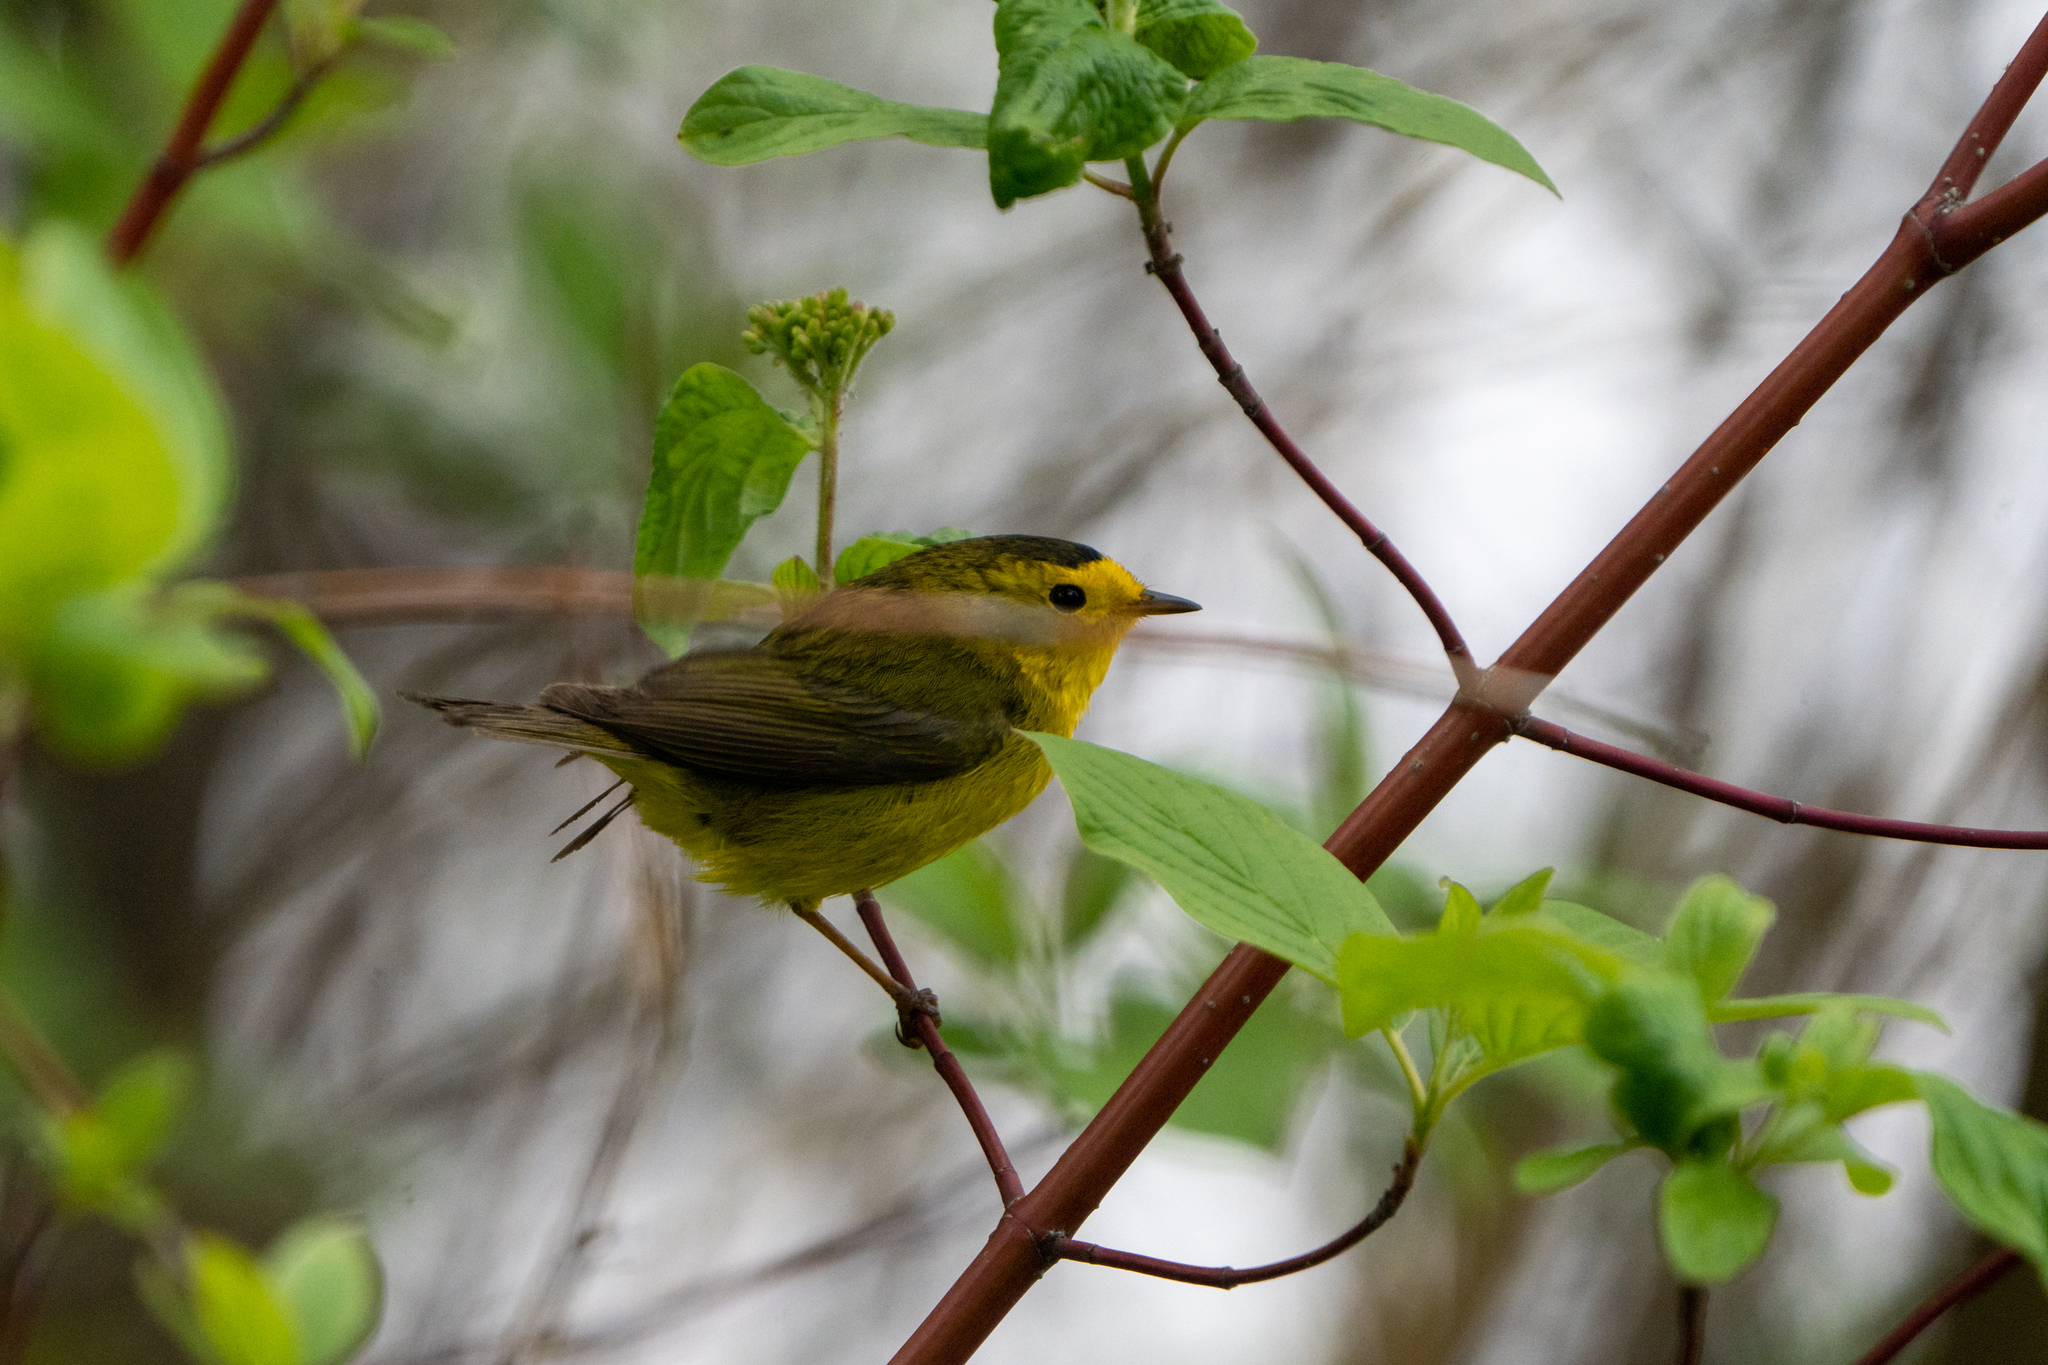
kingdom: Animalia
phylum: Chordata
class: Aves
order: Passeriformes
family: Parulidae
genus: Cardellina
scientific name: Cardellina pusilla
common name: Wilson's warbler
